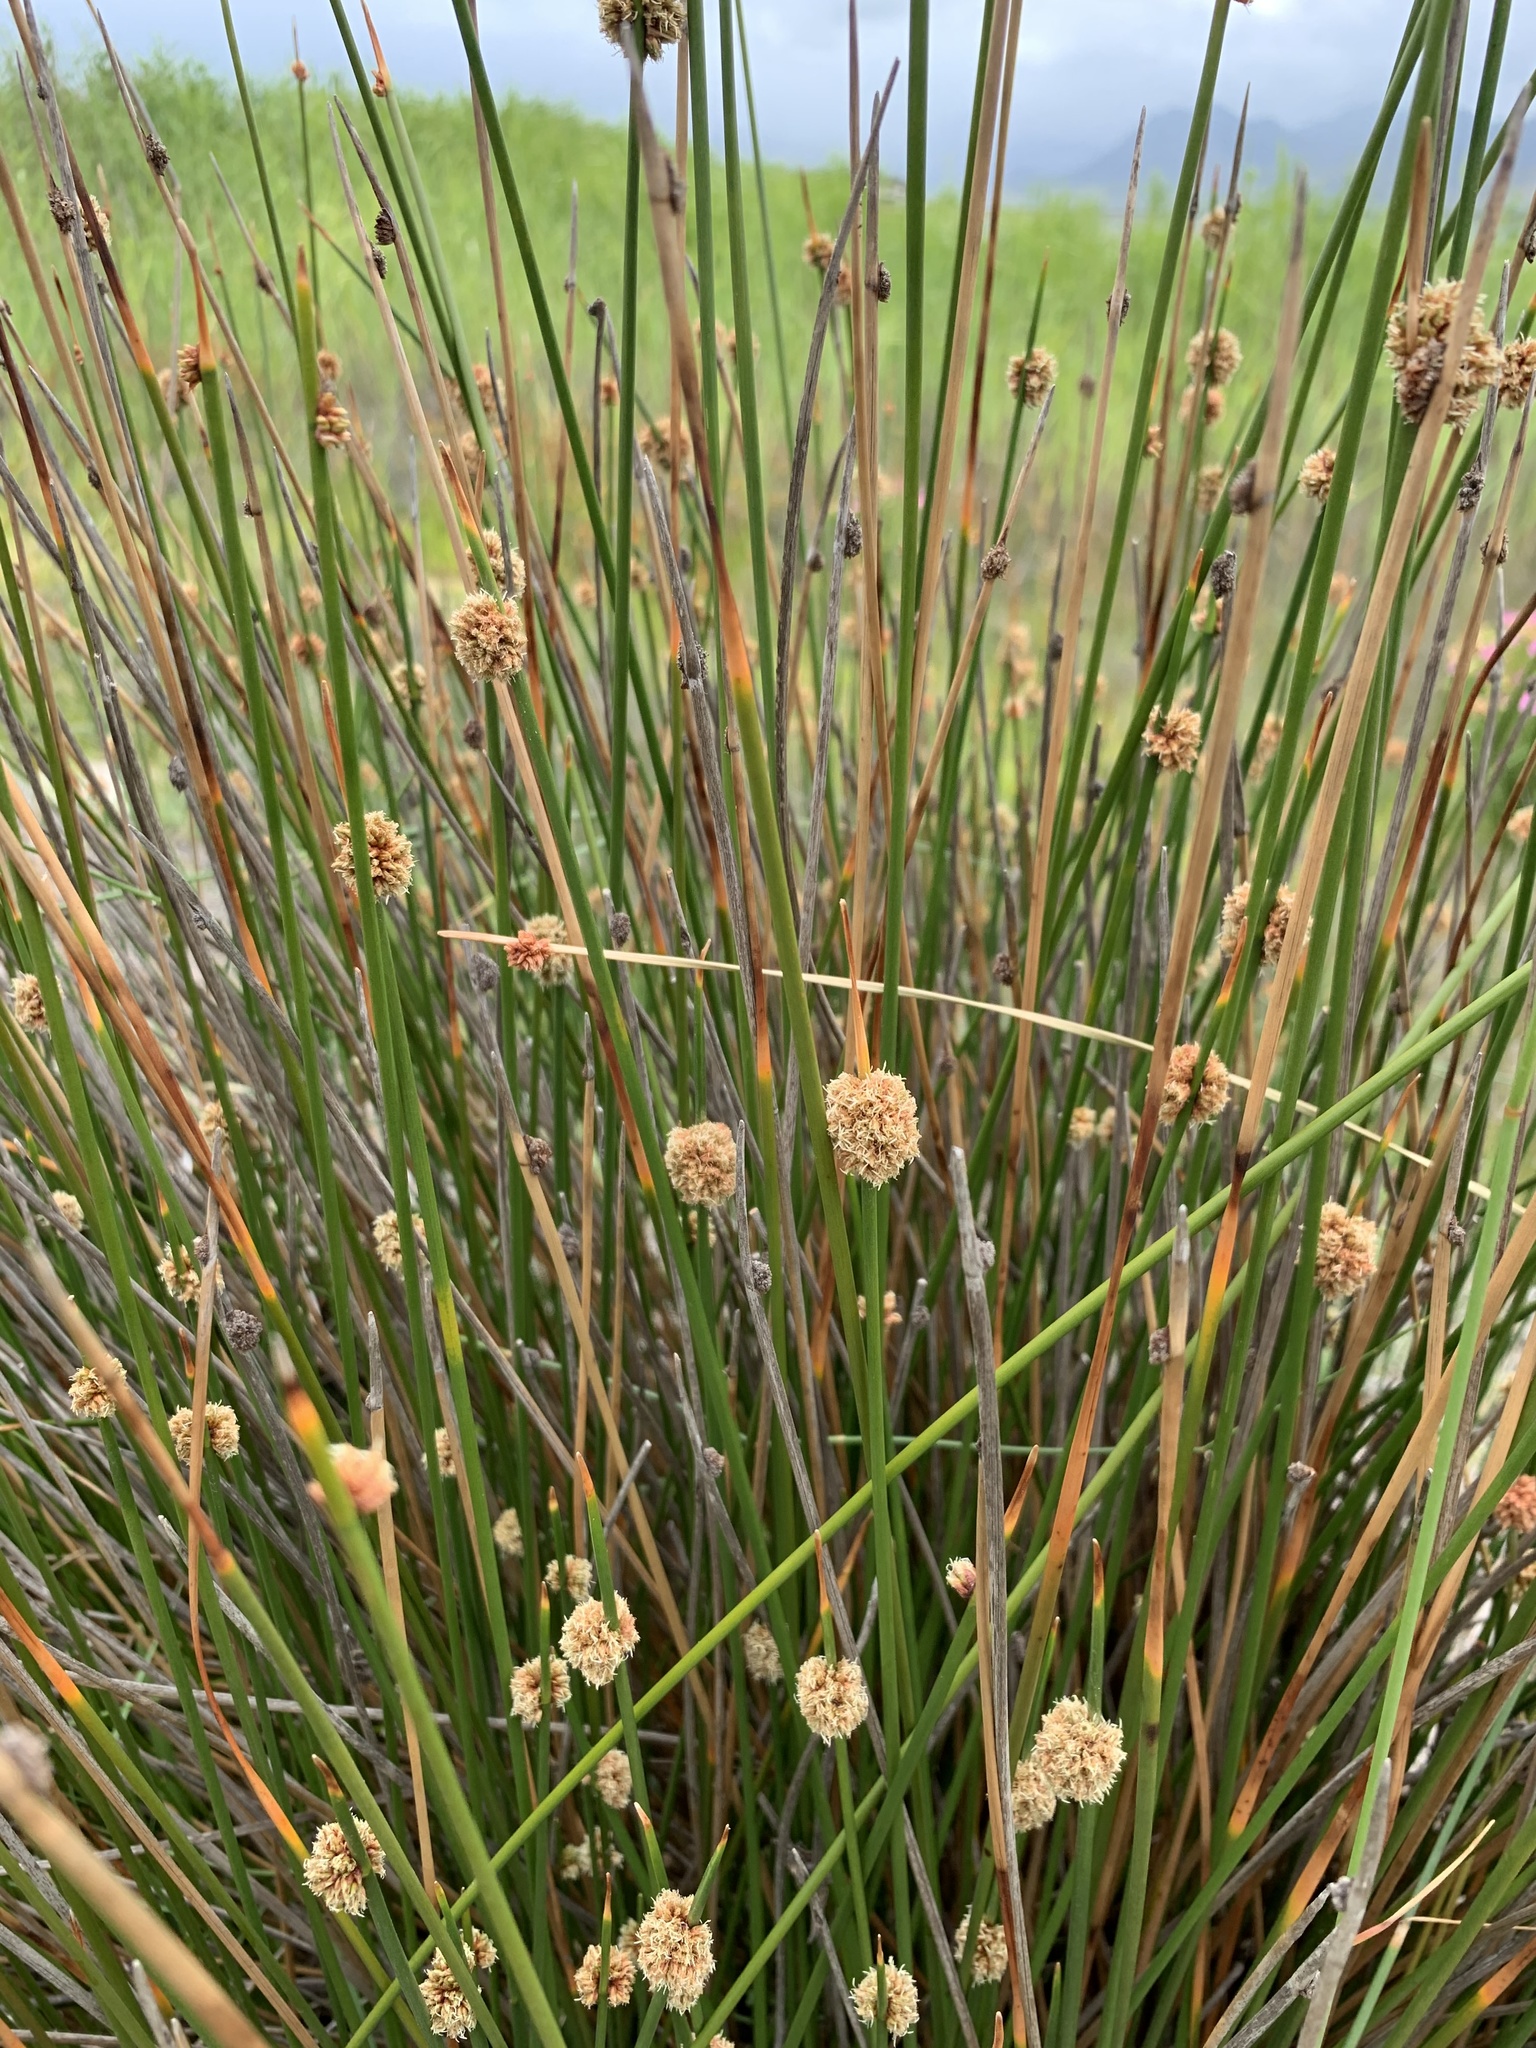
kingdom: Plantae
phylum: Tracheophyta
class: Liliopsida
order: Poales
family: Cyperaceae
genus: Ficinia
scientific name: Ficinia nodosa
